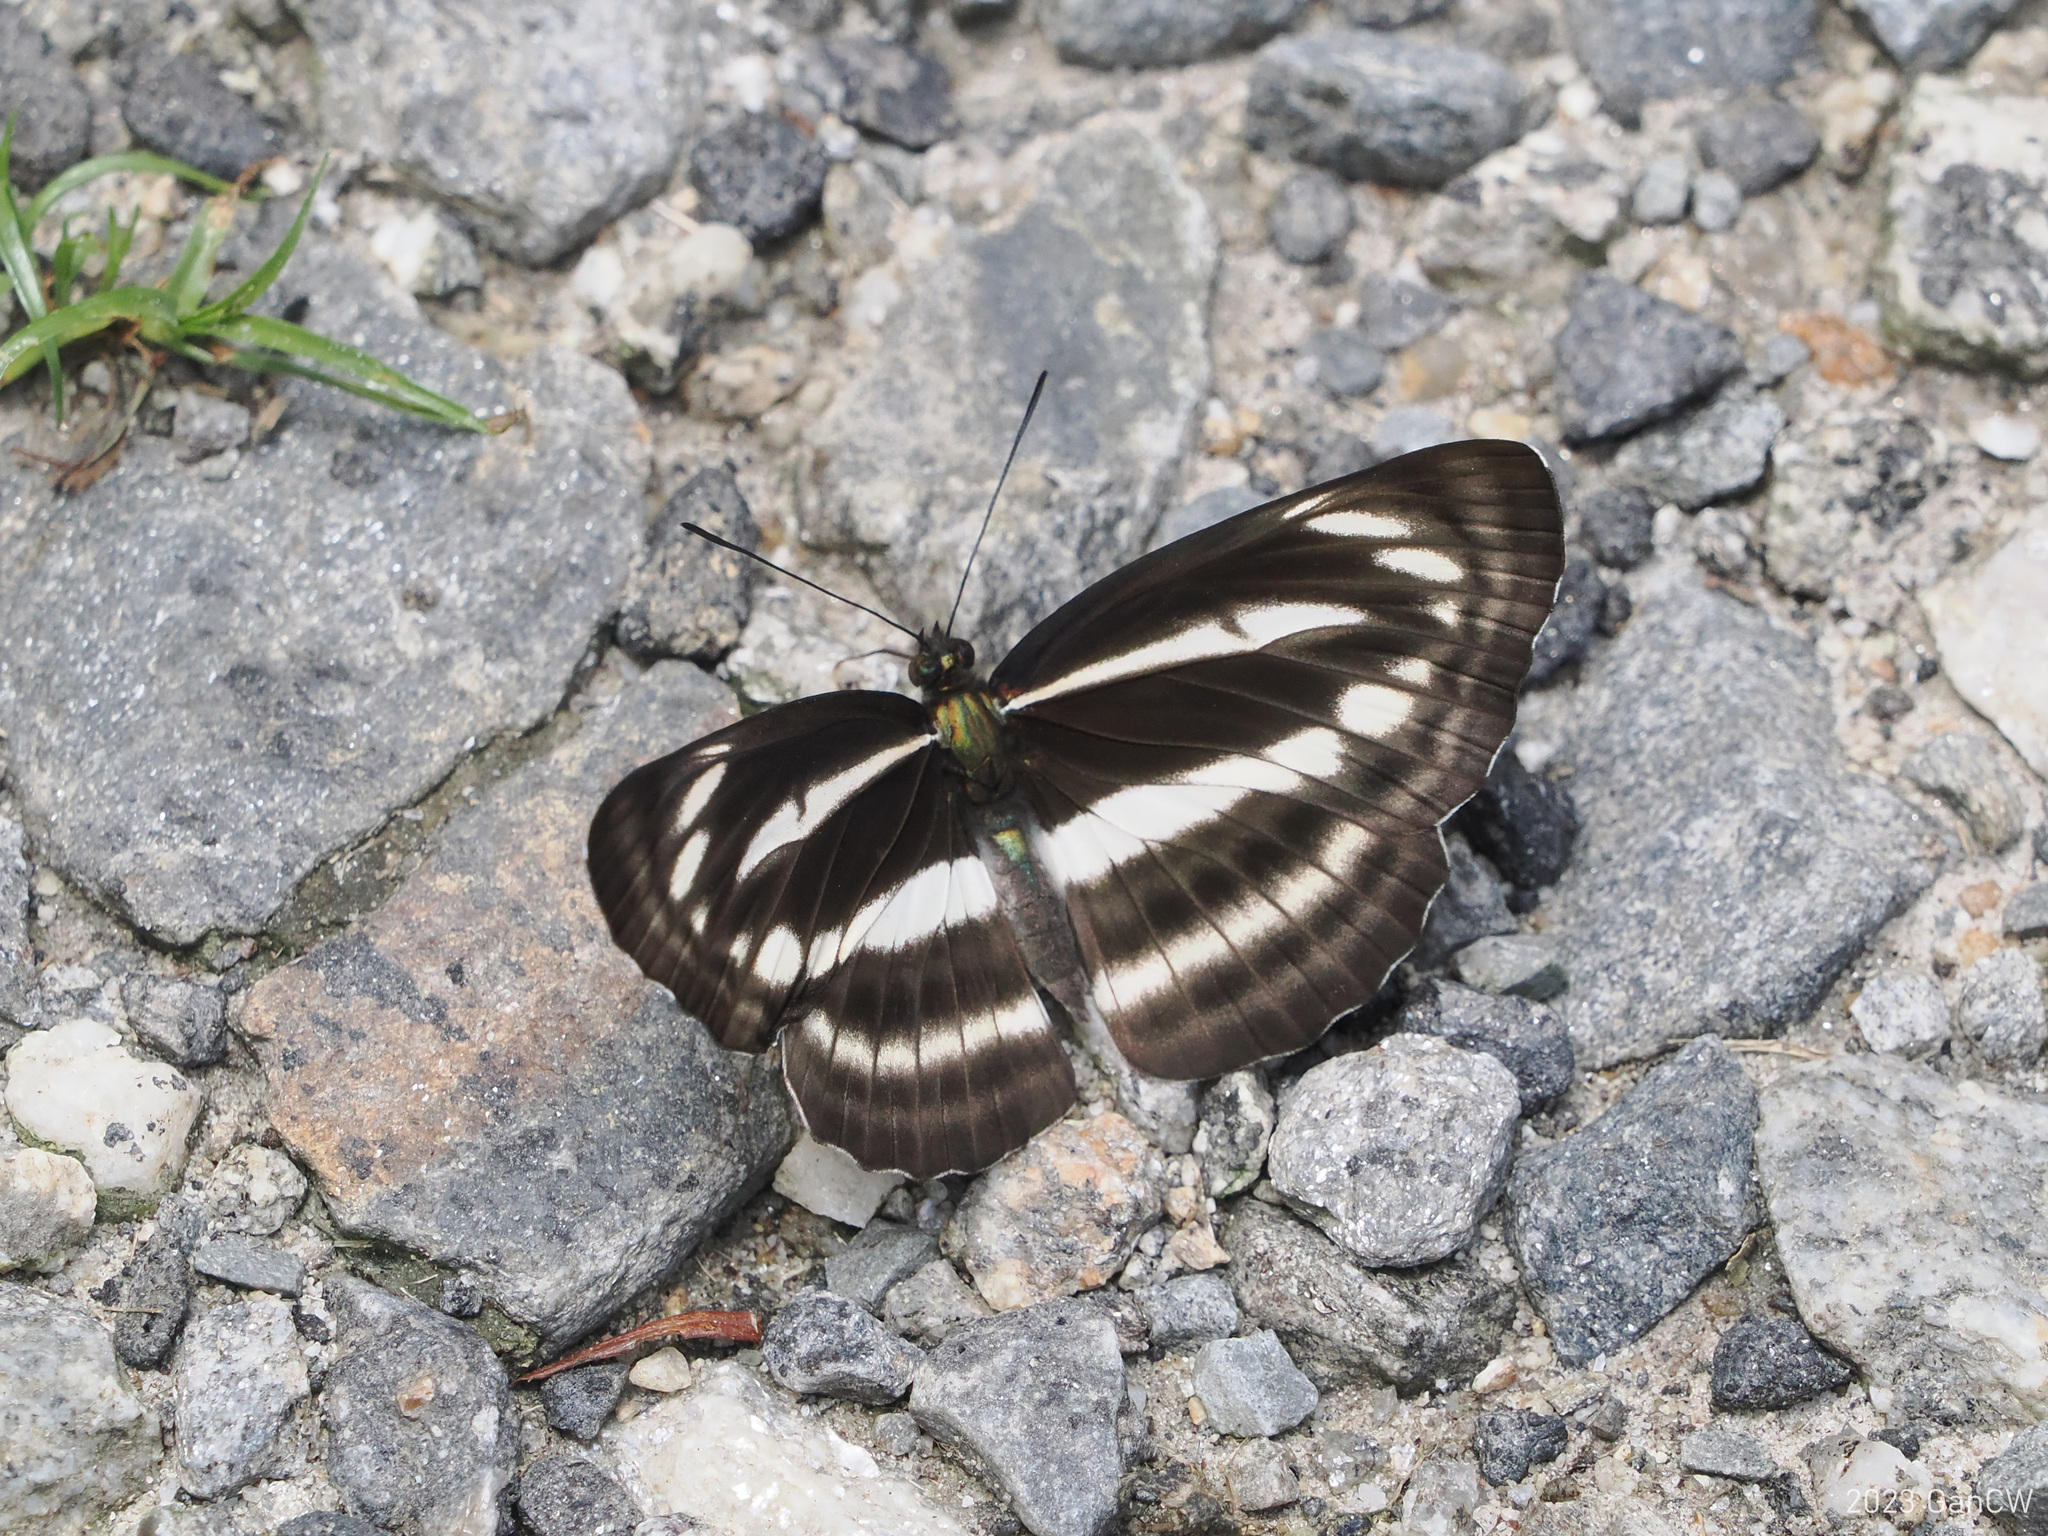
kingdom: Animalia
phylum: Arthropoda
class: Insecta
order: Lepidoptera
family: Nymphalidae
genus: Neptis
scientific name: Neptis sankara
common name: Broad-banded sailer
